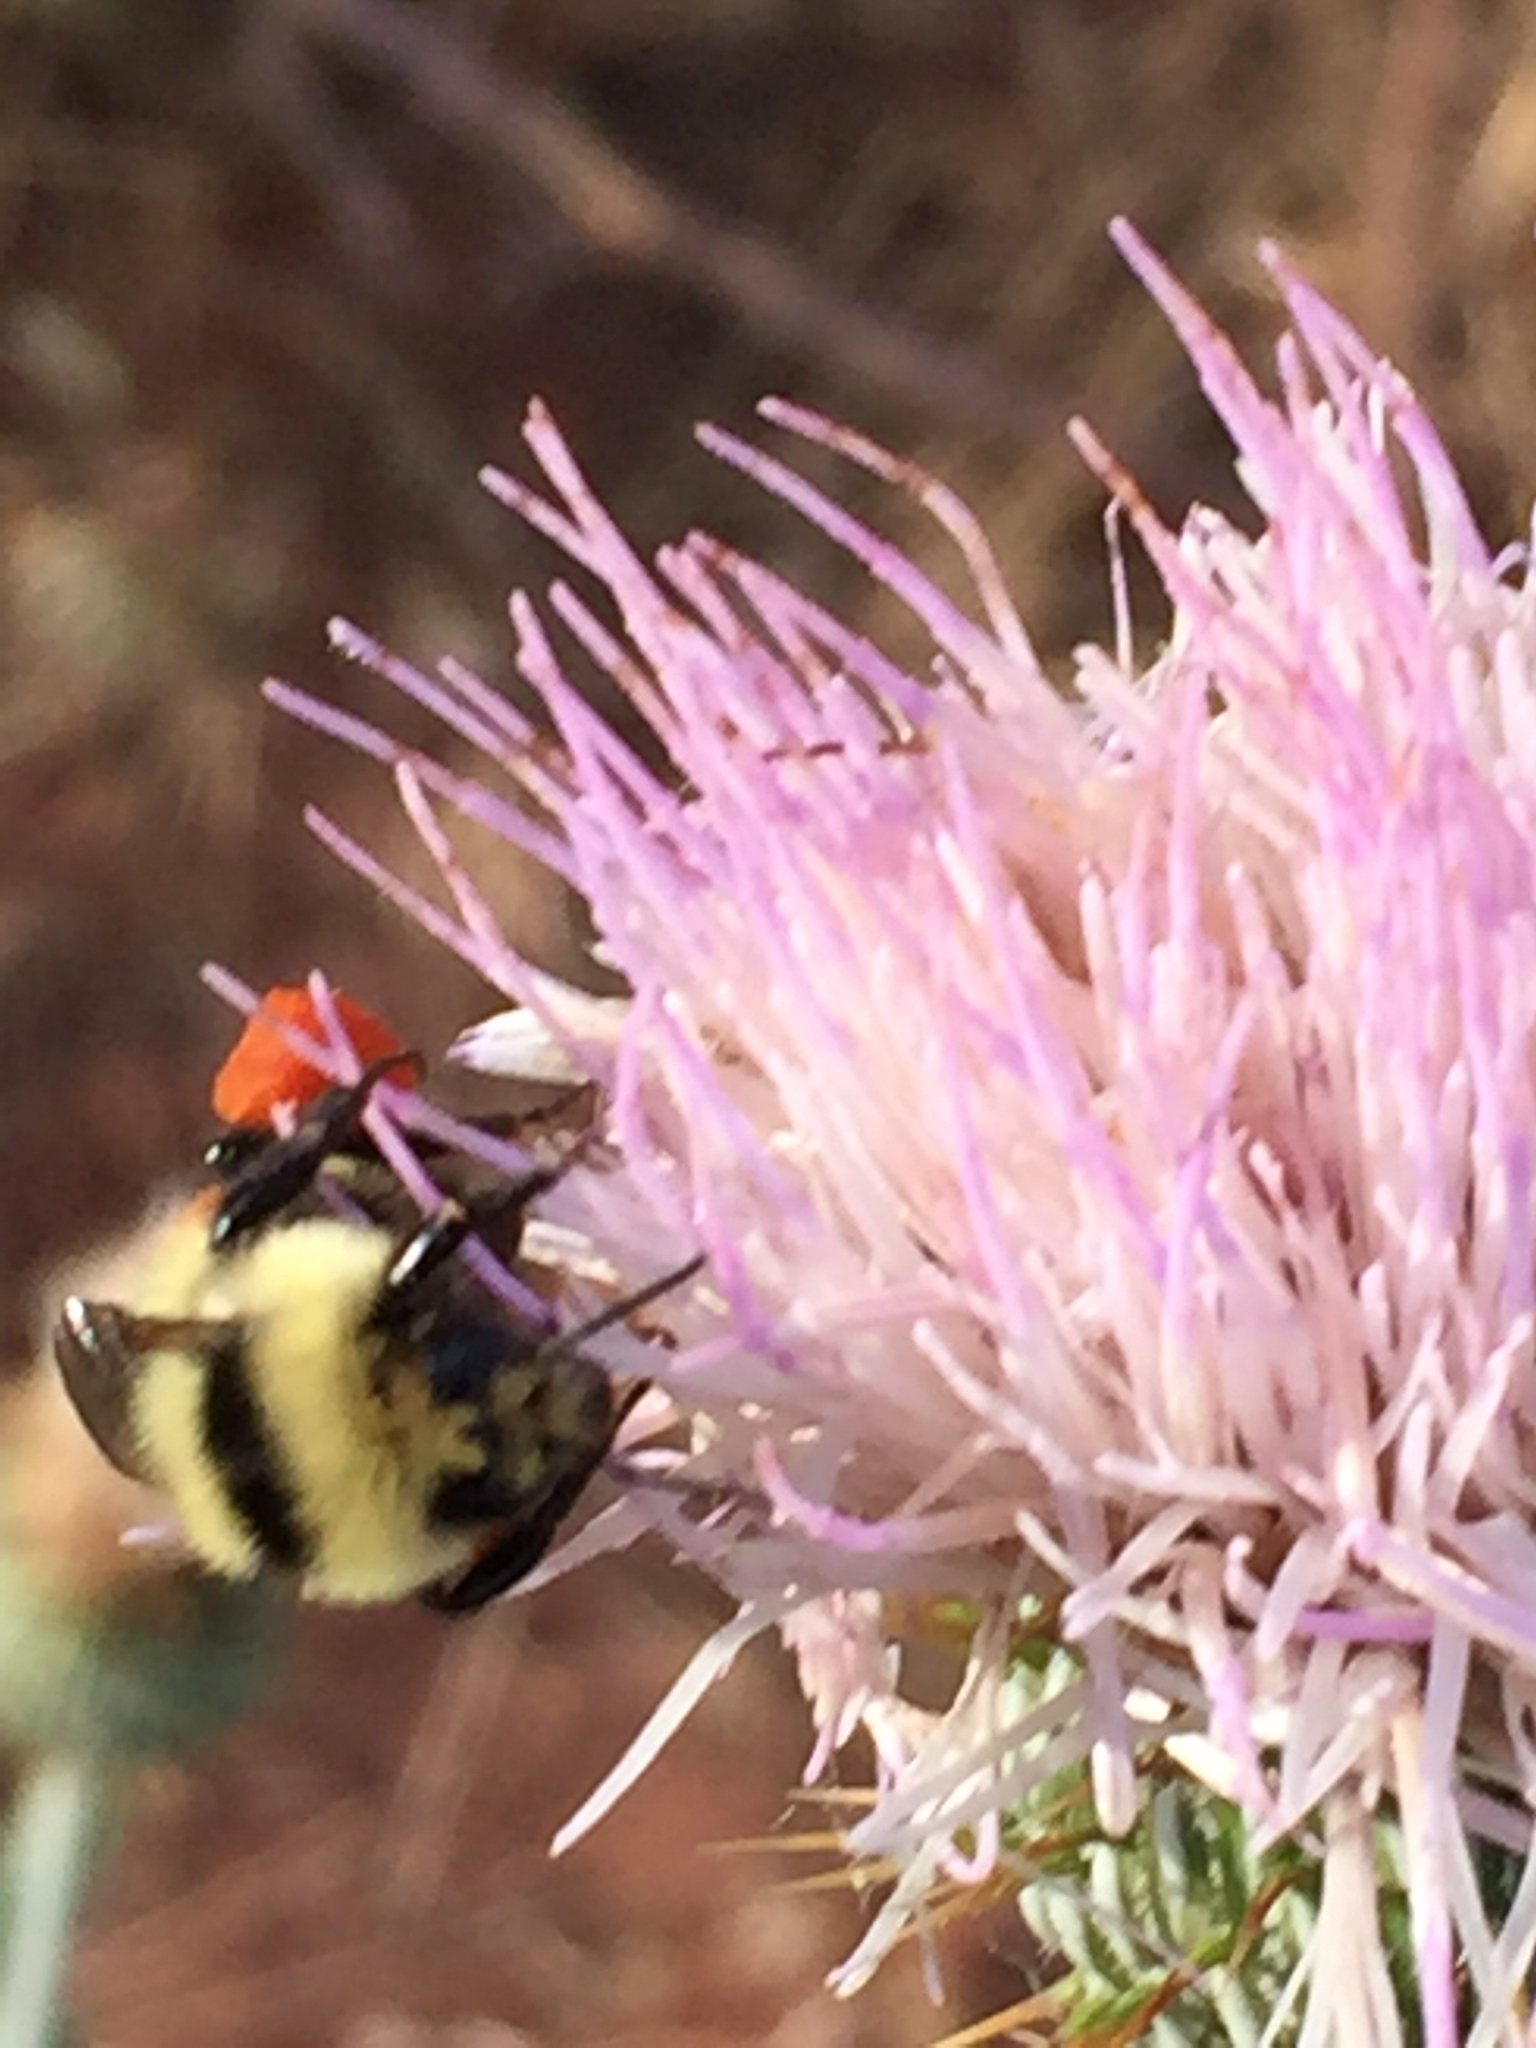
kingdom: Animalia
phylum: Arthropoda
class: Insecta
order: Hymenoptera
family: Apidae
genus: Bombus
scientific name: Bombus huntii
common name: Hunt bumble bee
